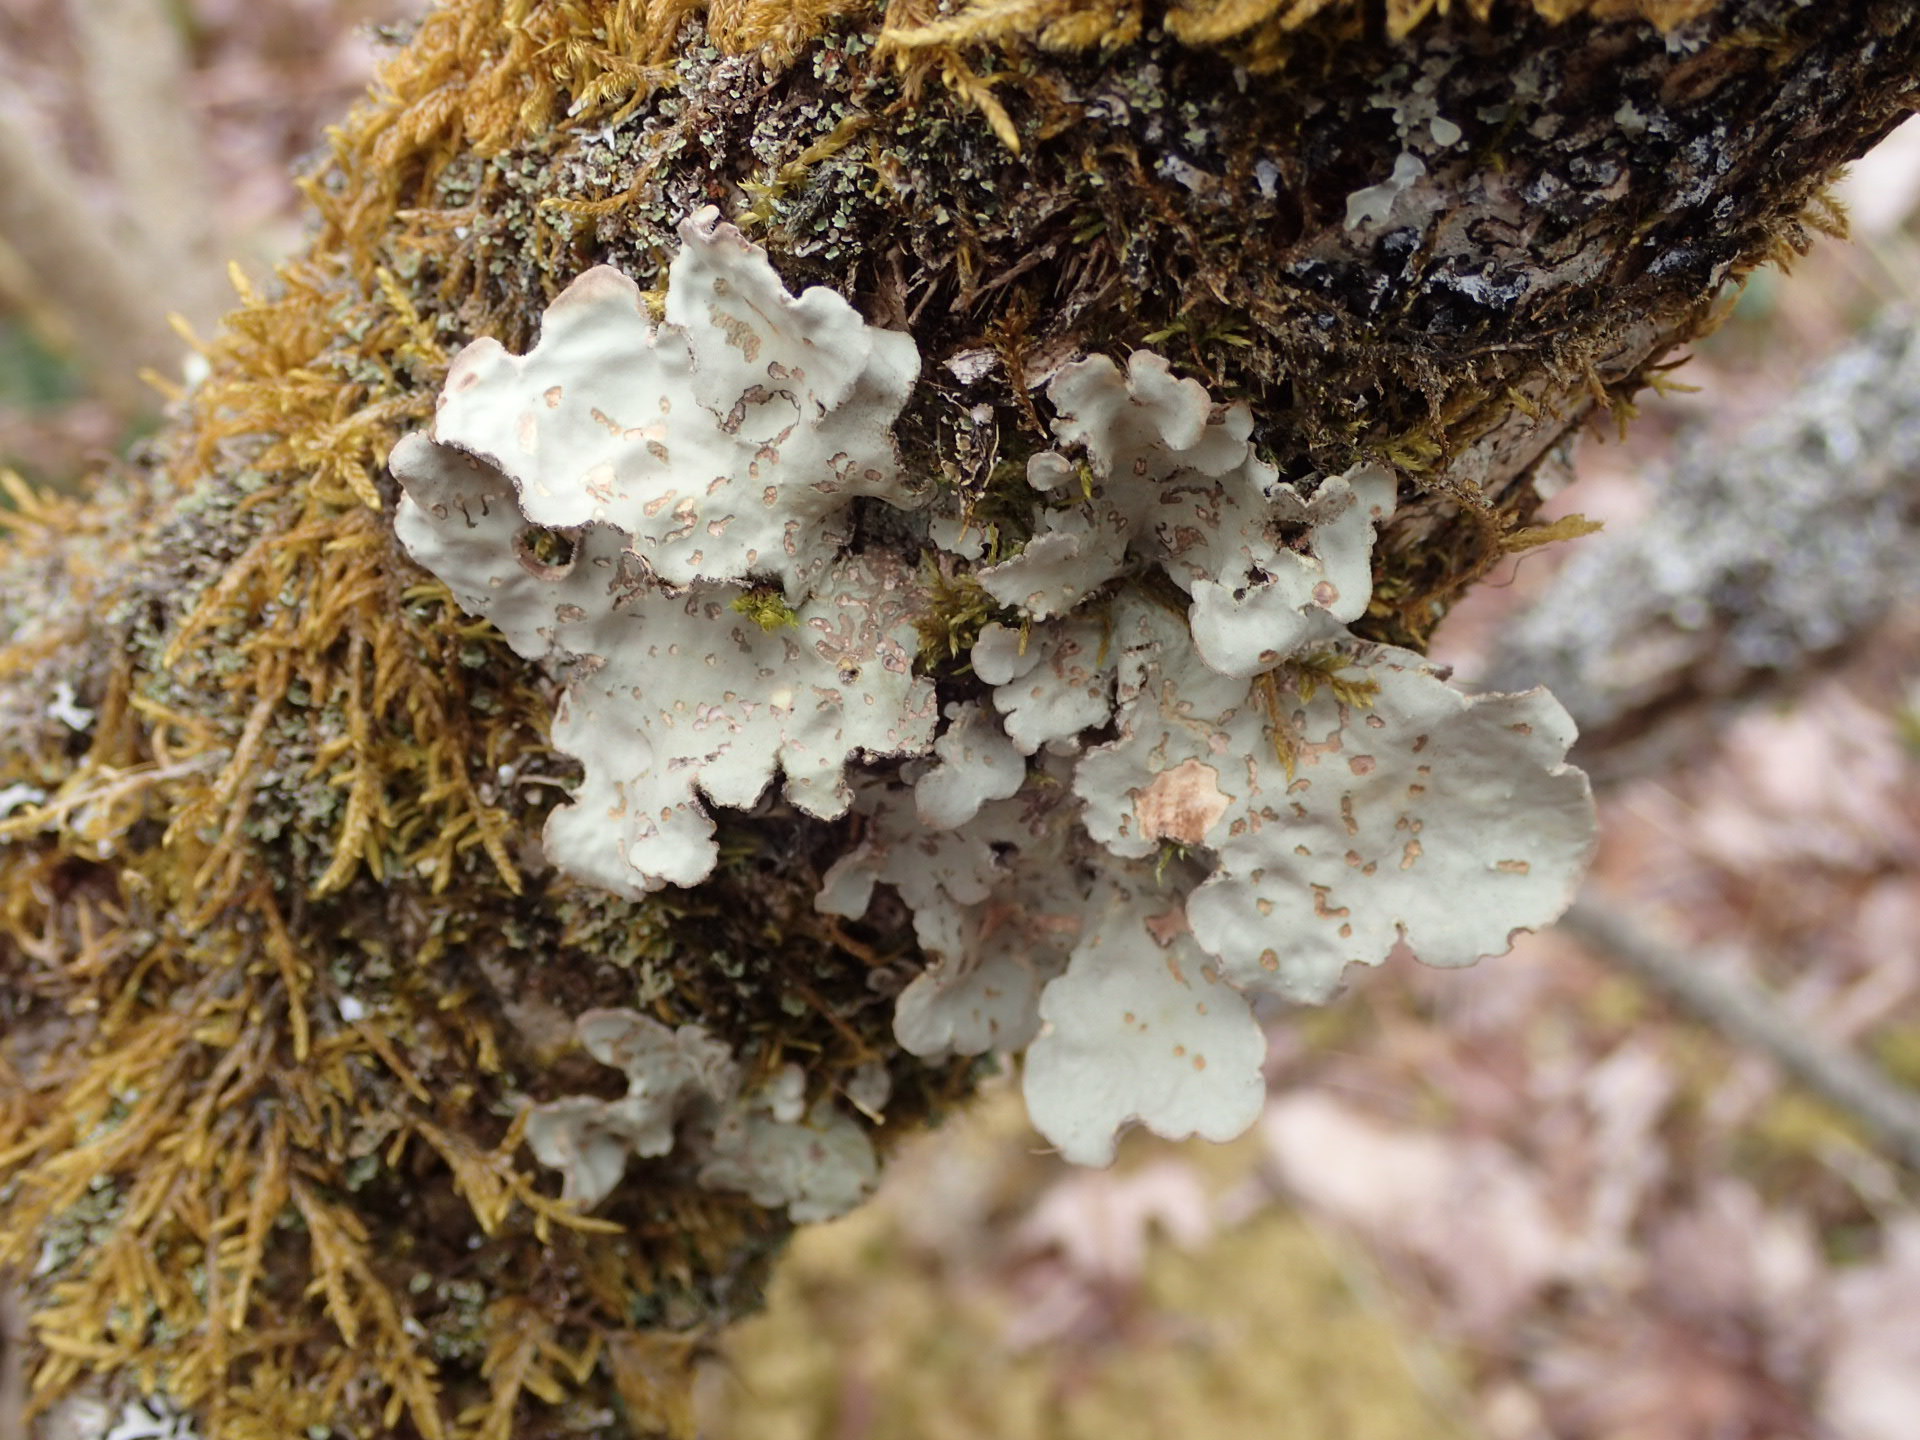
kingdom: Fungi
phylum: Ascomycota
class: Lecanoromycetes
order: Peltigerales
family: Lobariaceae
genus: Lobarina
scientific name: Lobarina scrobiculata
